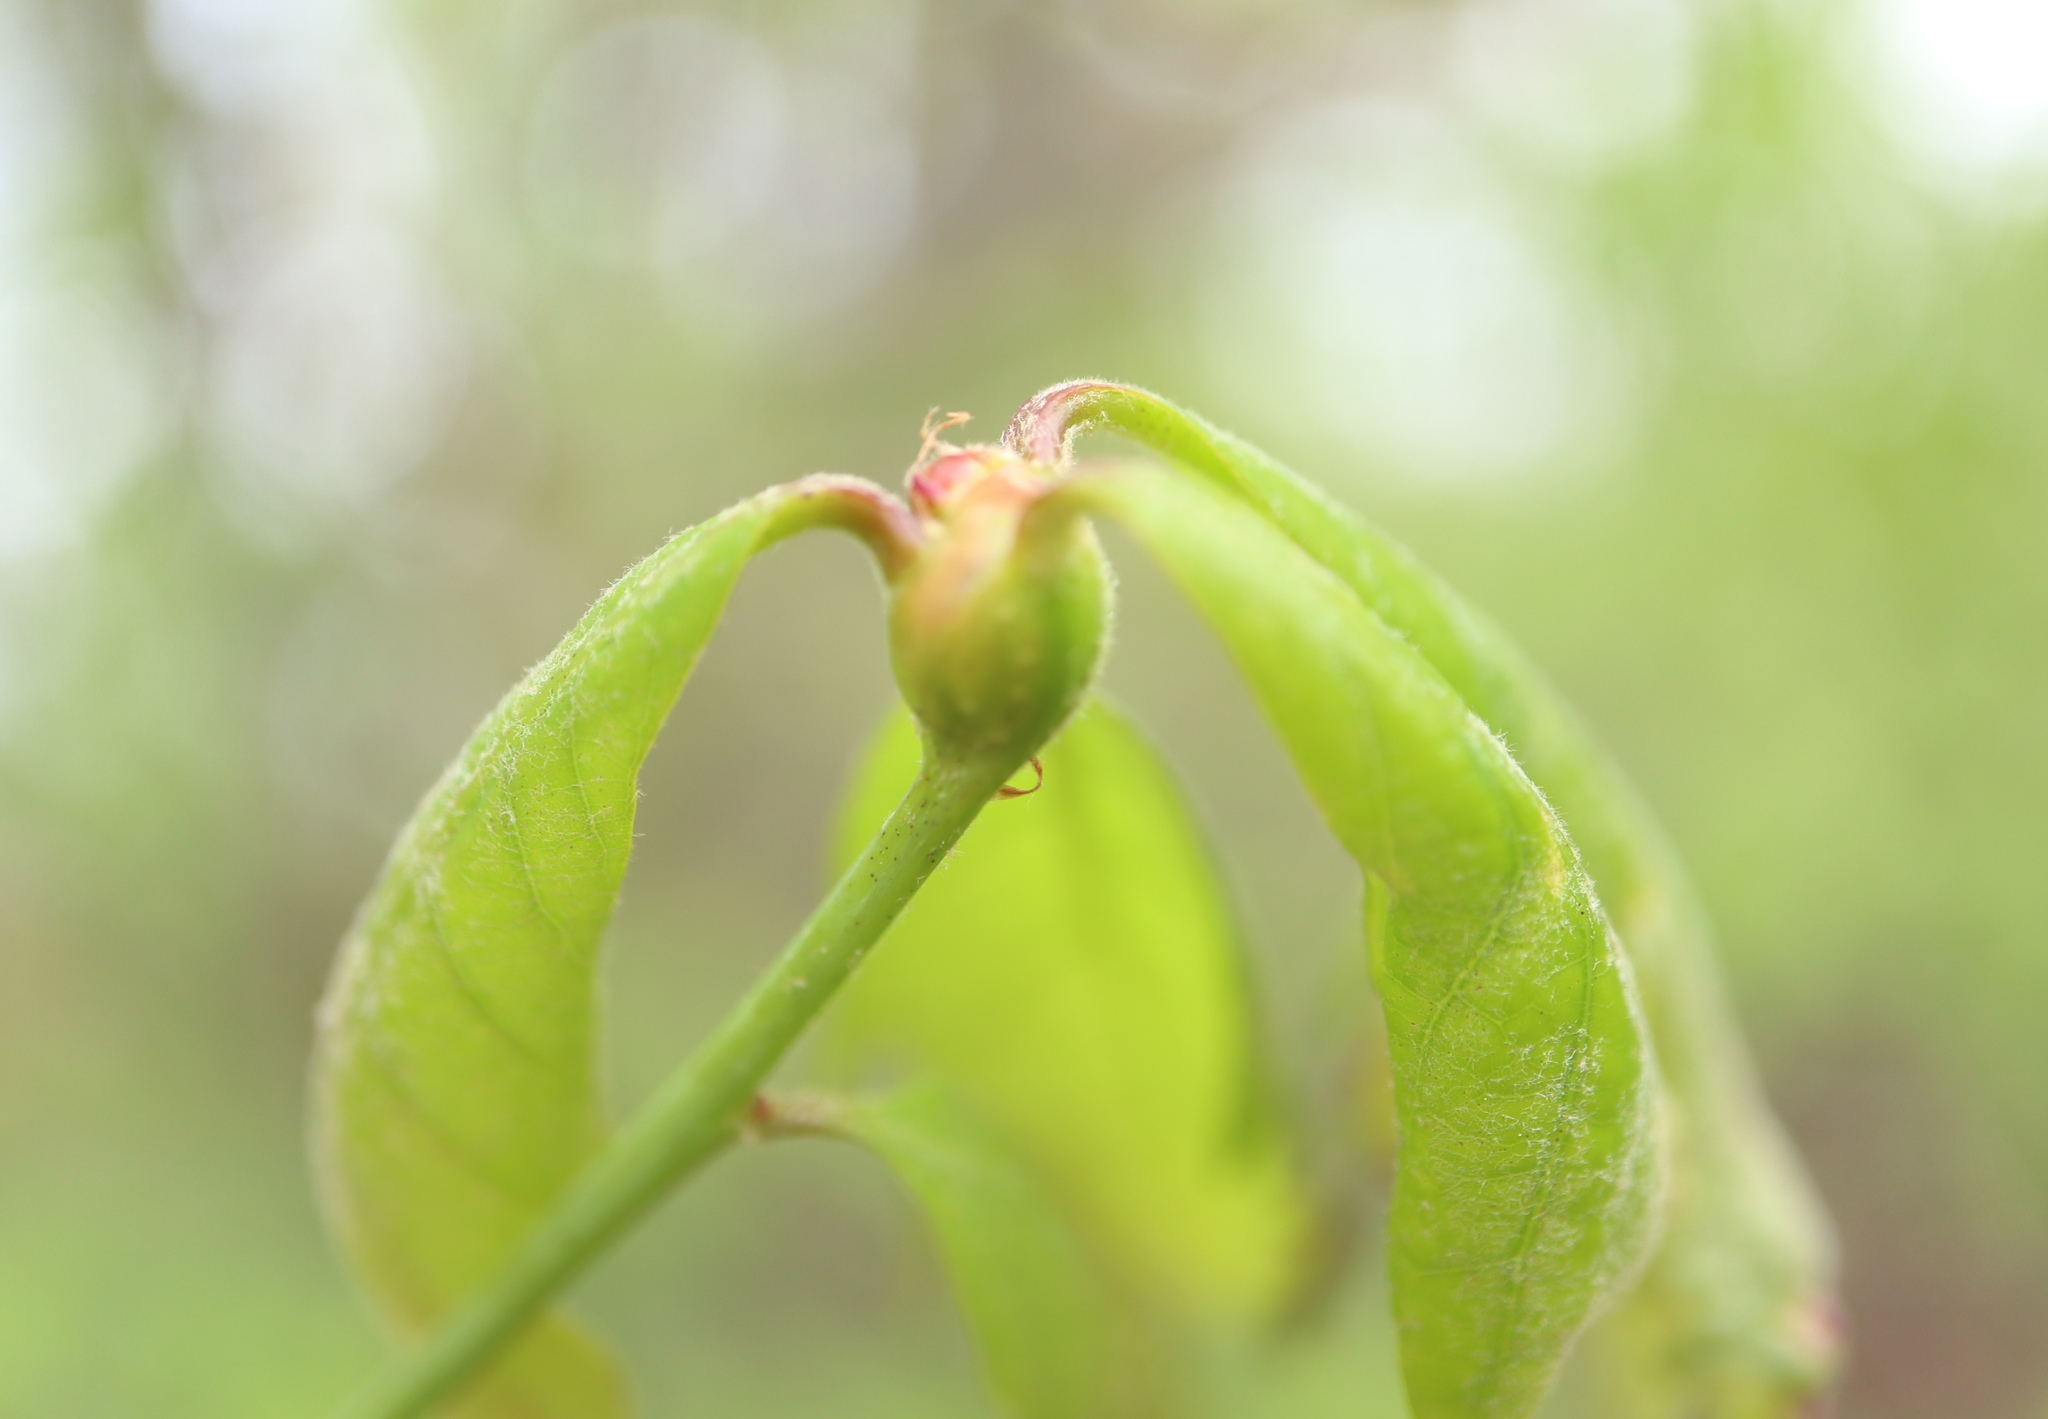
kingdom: Animalia
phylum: Arthropoda
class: Insecta
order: Hymenoptera
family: Cynipidae
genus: Callirhytis
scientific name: Callirhytis clavula
